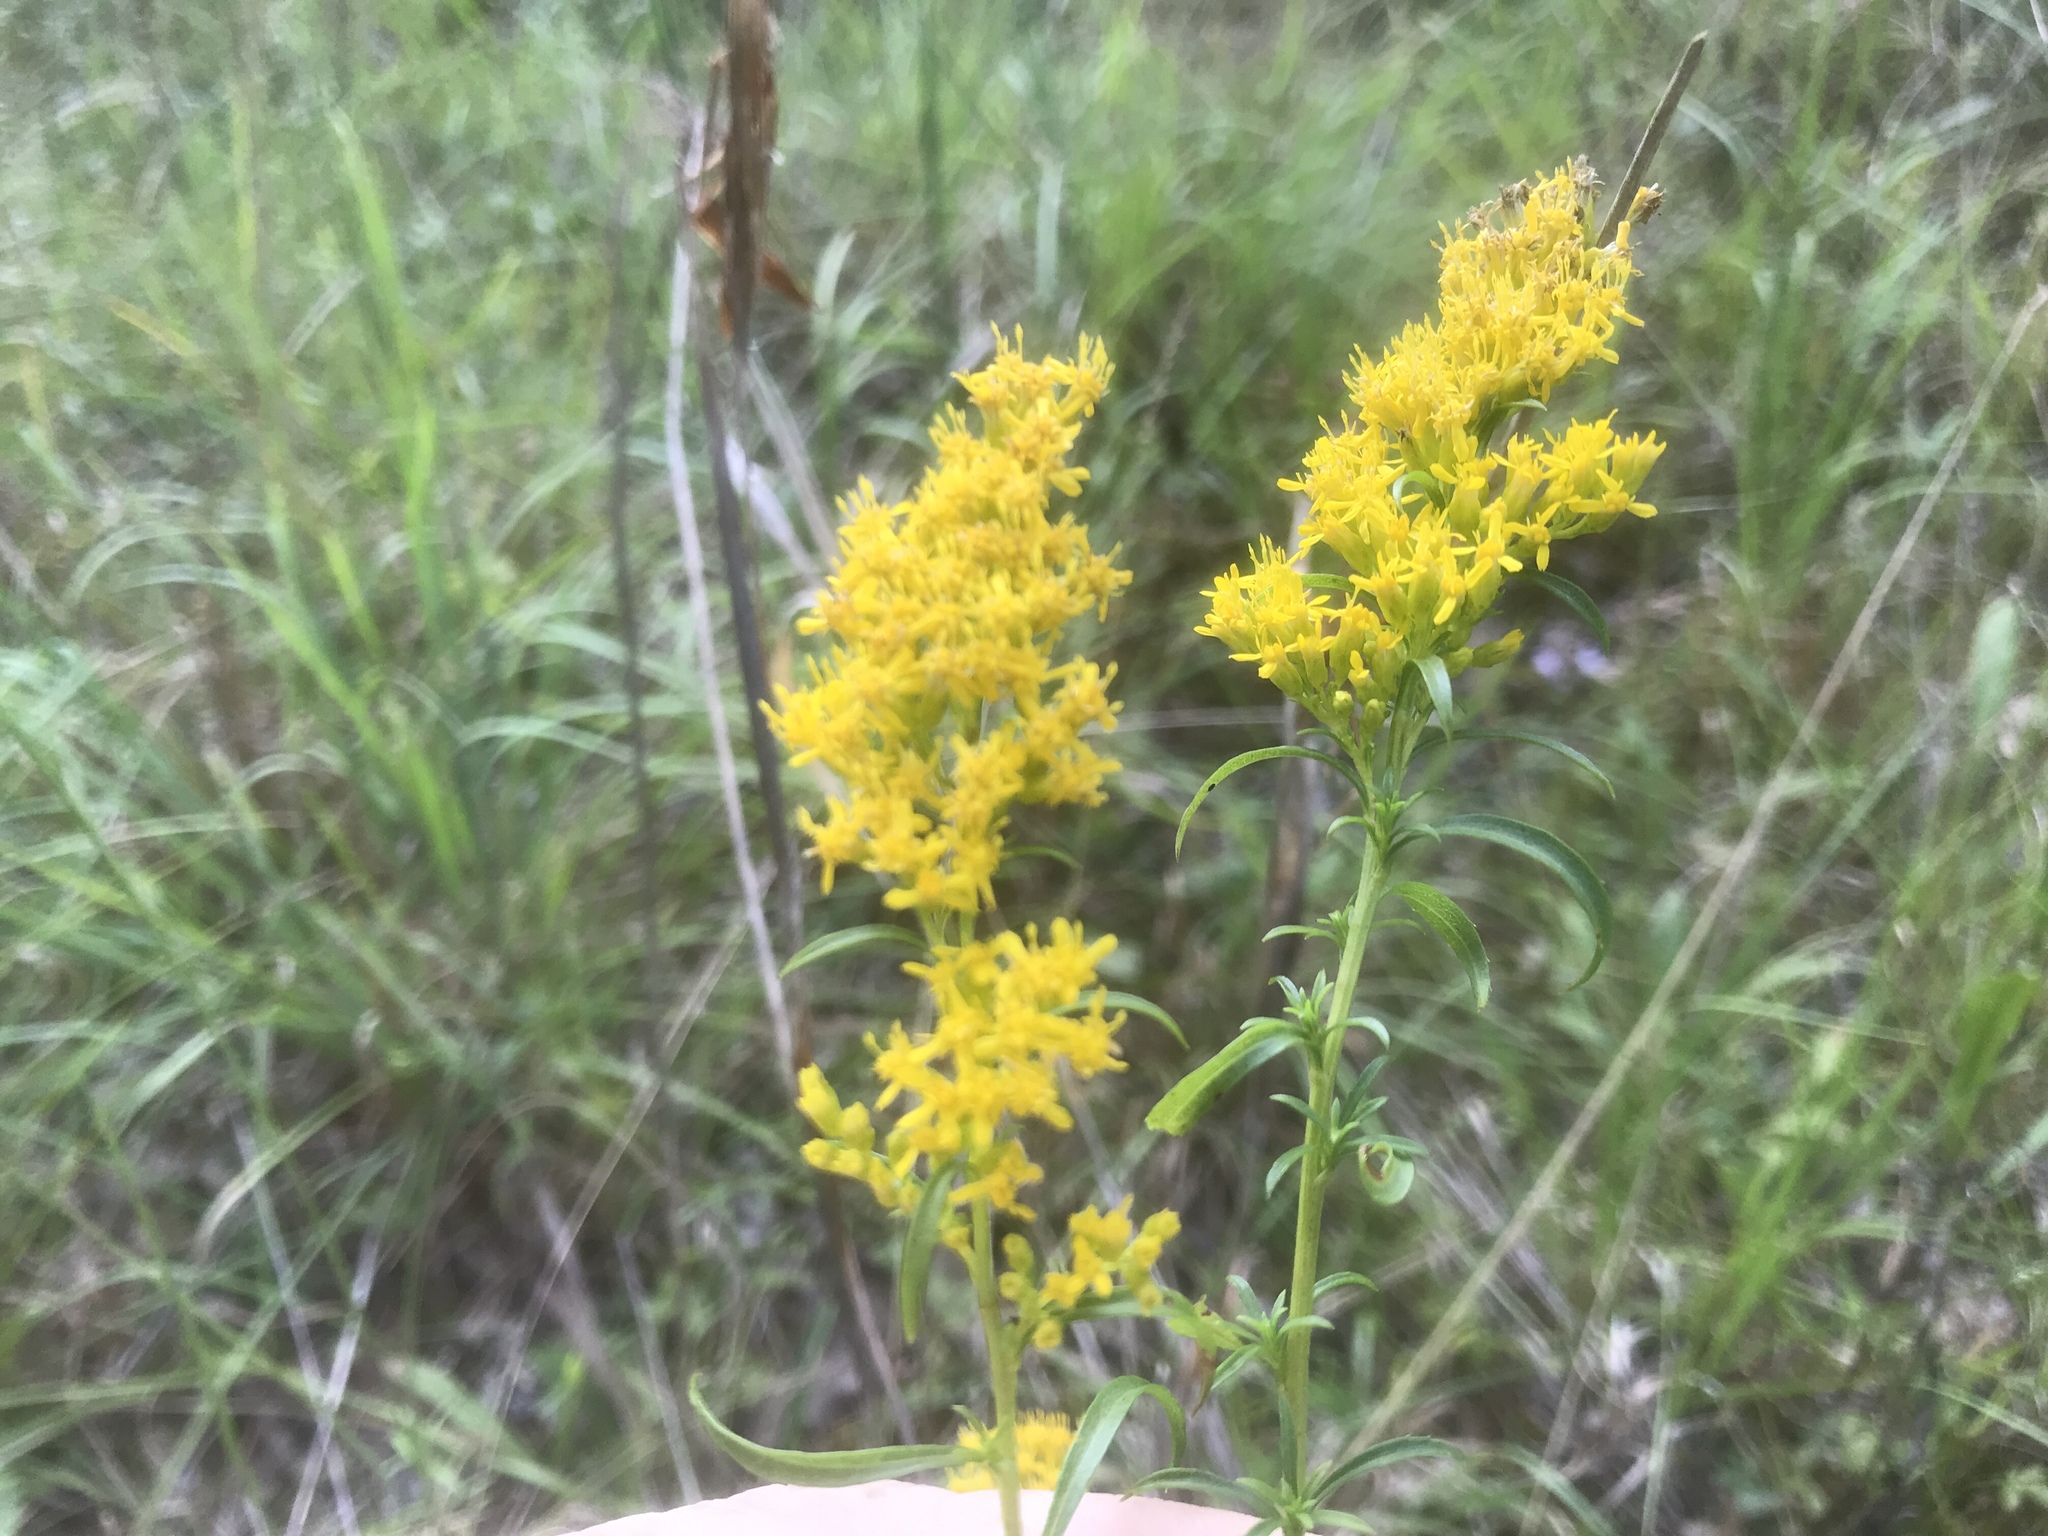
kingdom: Plantae
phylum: Tracheophyta
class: Magnoliopsida
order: Asterales
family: Asteraceae
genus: Solidago
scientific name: Solidago pinetorum
